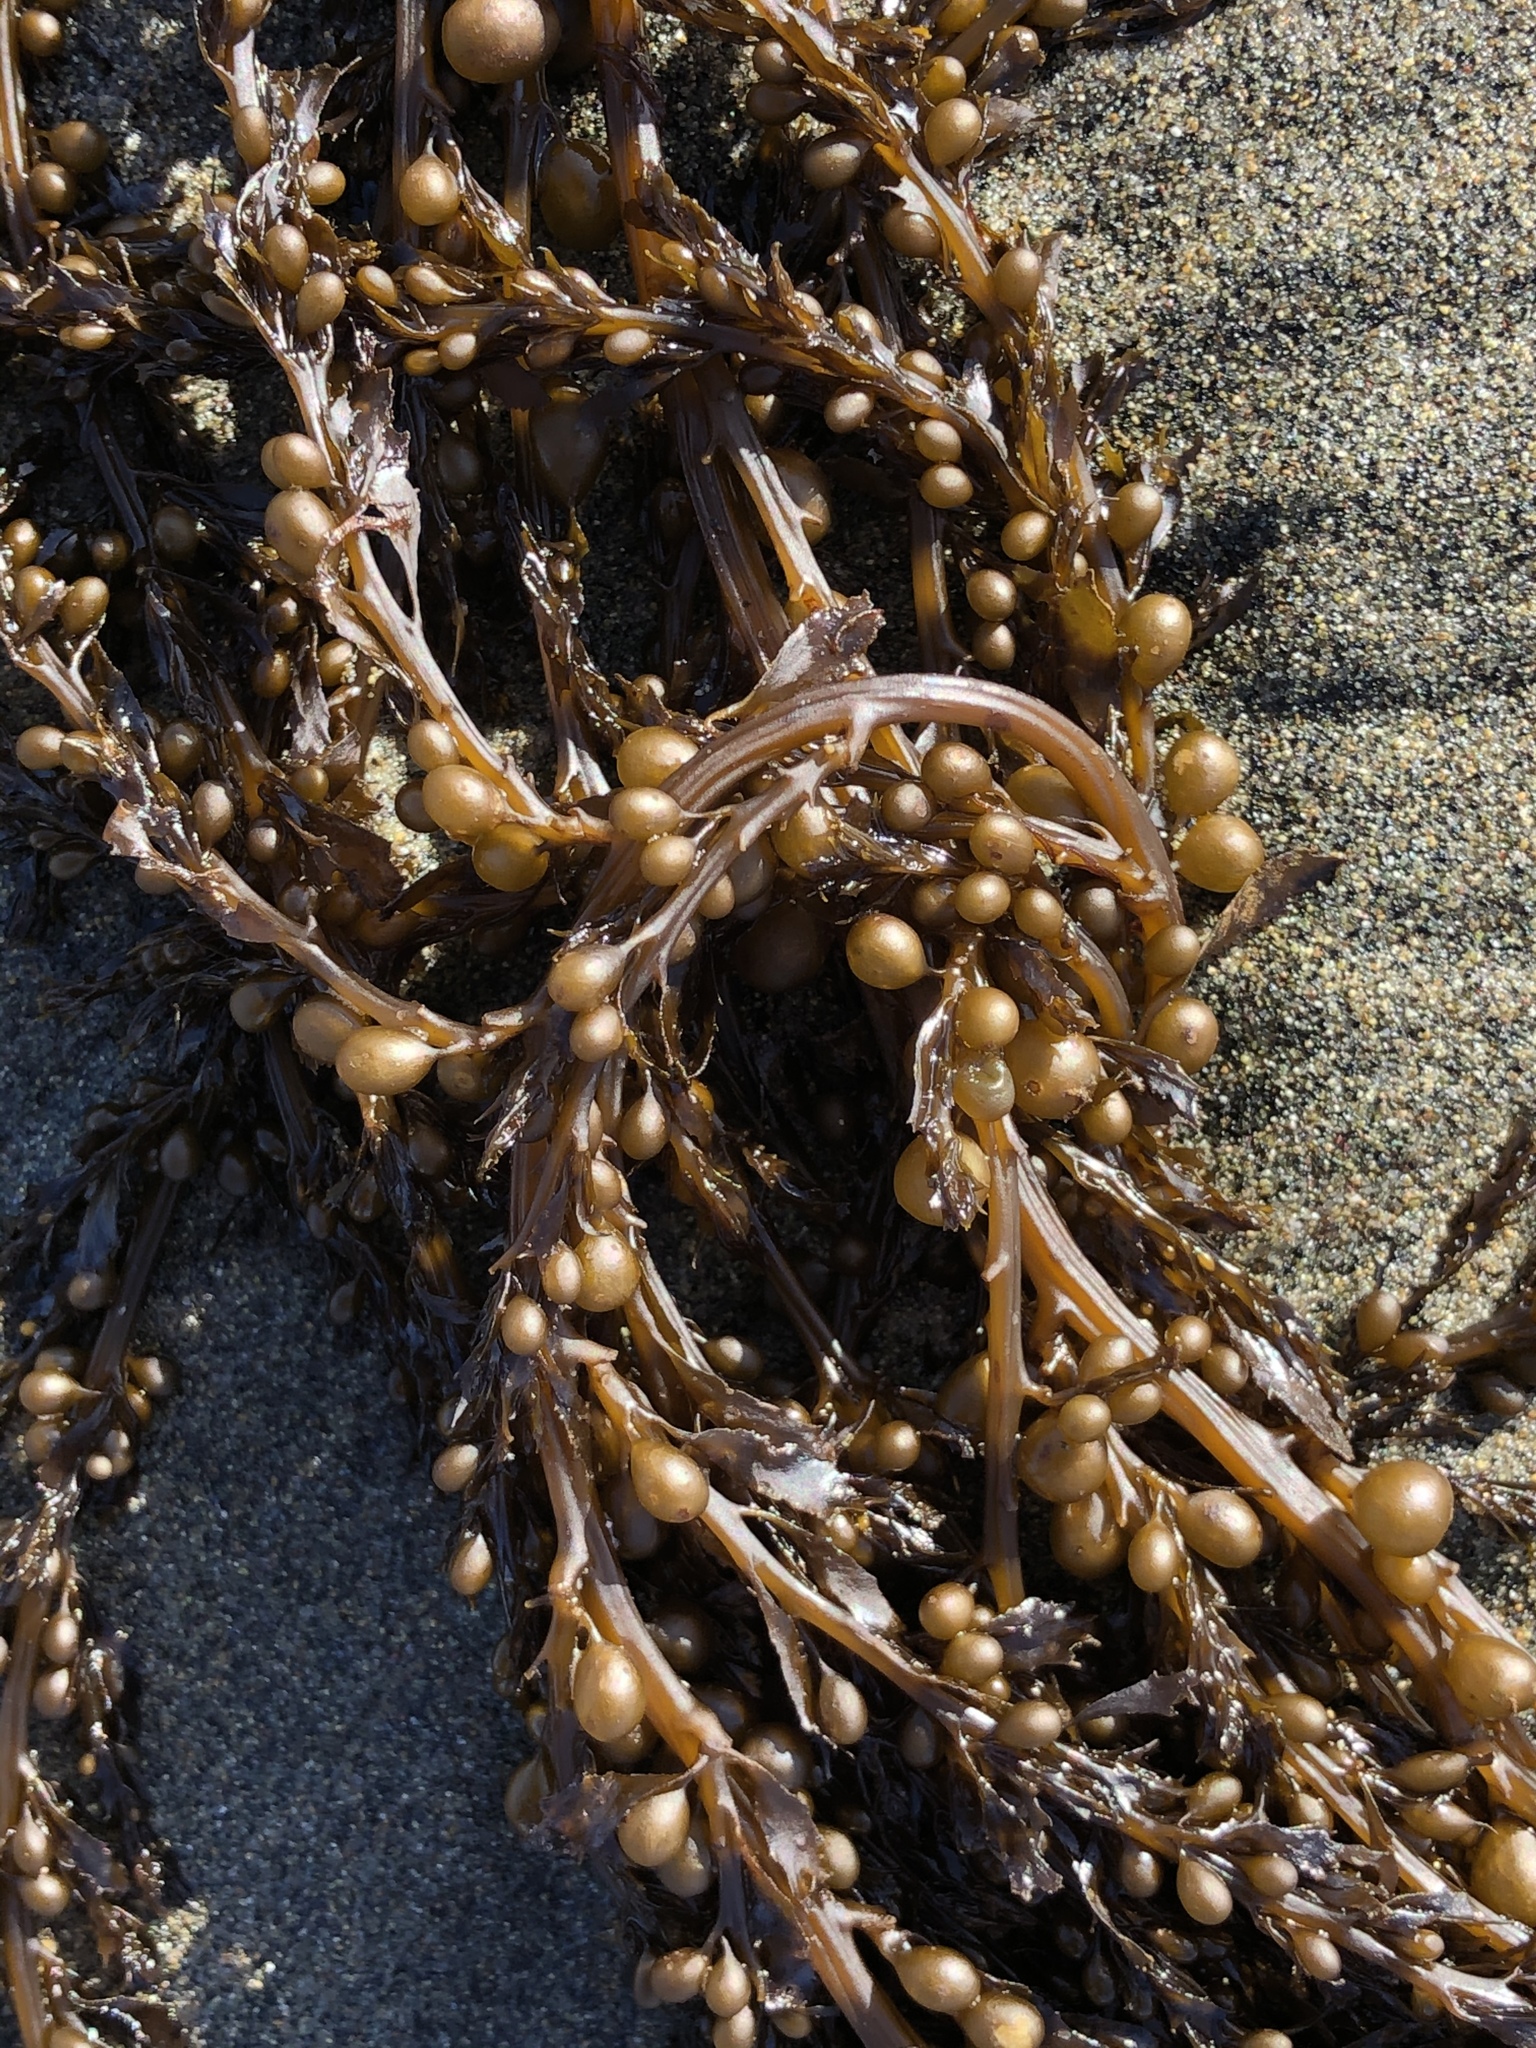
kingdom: Chromista
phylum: Ochrophyta
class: Phaeophyceae
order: Fucales
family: Sargassaceae
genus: Sargassum
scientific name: Sargassum muticum
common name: Japweed
